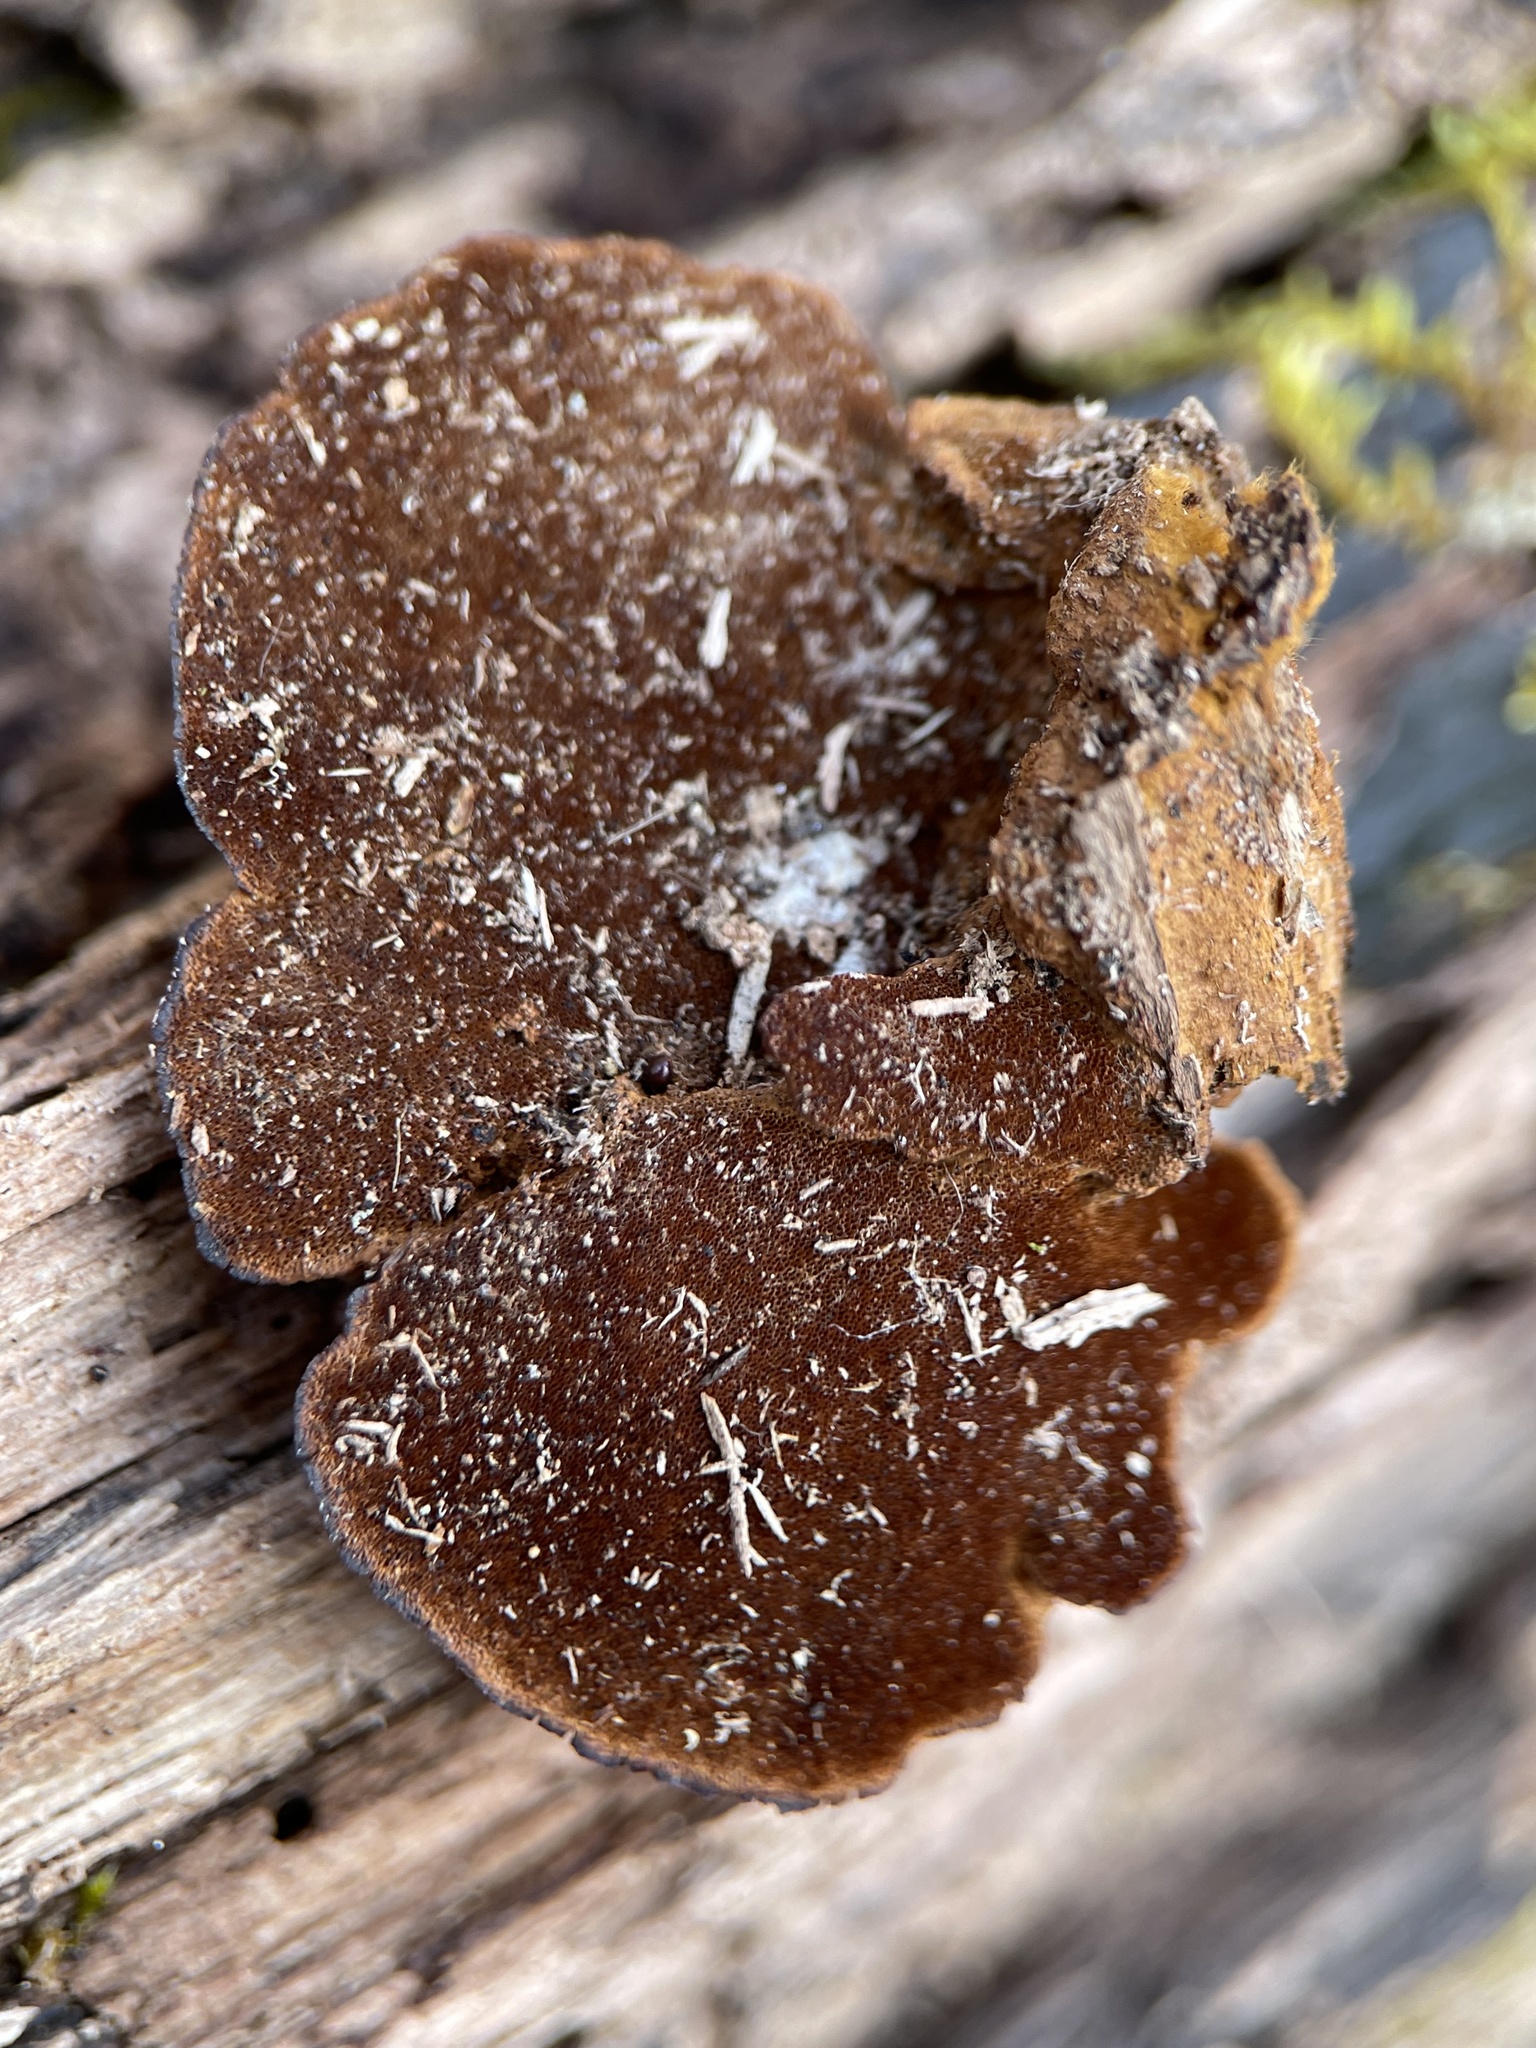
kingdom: Fungi
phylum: Basidiomycota
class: Agaricomycetes
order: Hymenochaetales
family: Hymenochaetaceae
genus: Phellinus
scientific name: Phellinus gilvus
